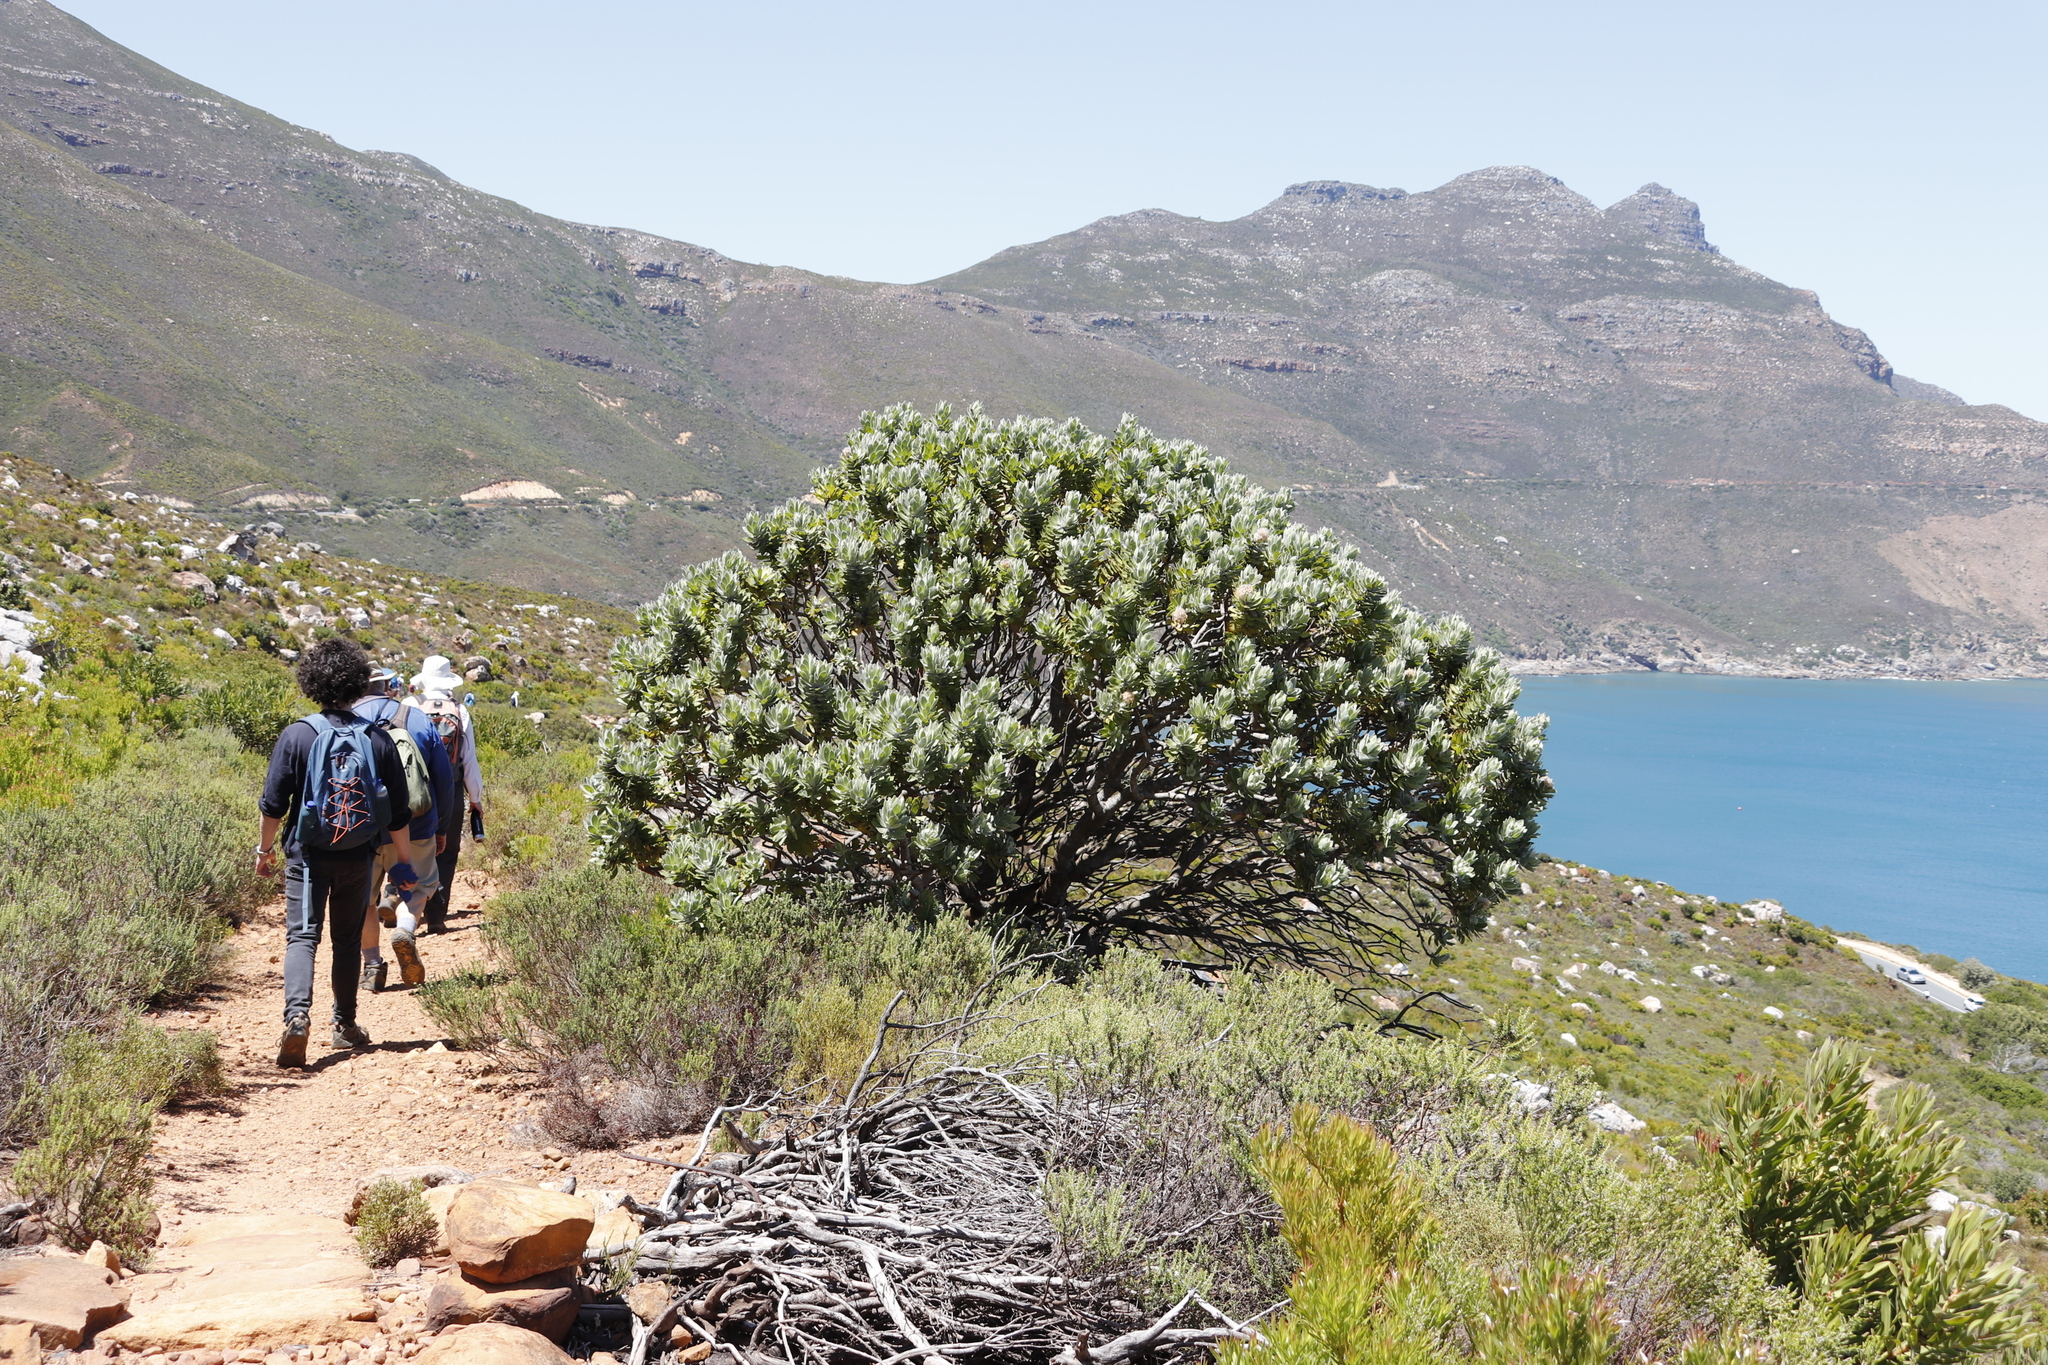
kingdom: Plantae
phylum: Tracheophyta
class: Magnoliopsida
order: Proteales
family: Proteaceae
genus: Leucospermum
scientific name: Leucospermum conocarpodendron
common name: Tree pincushion
